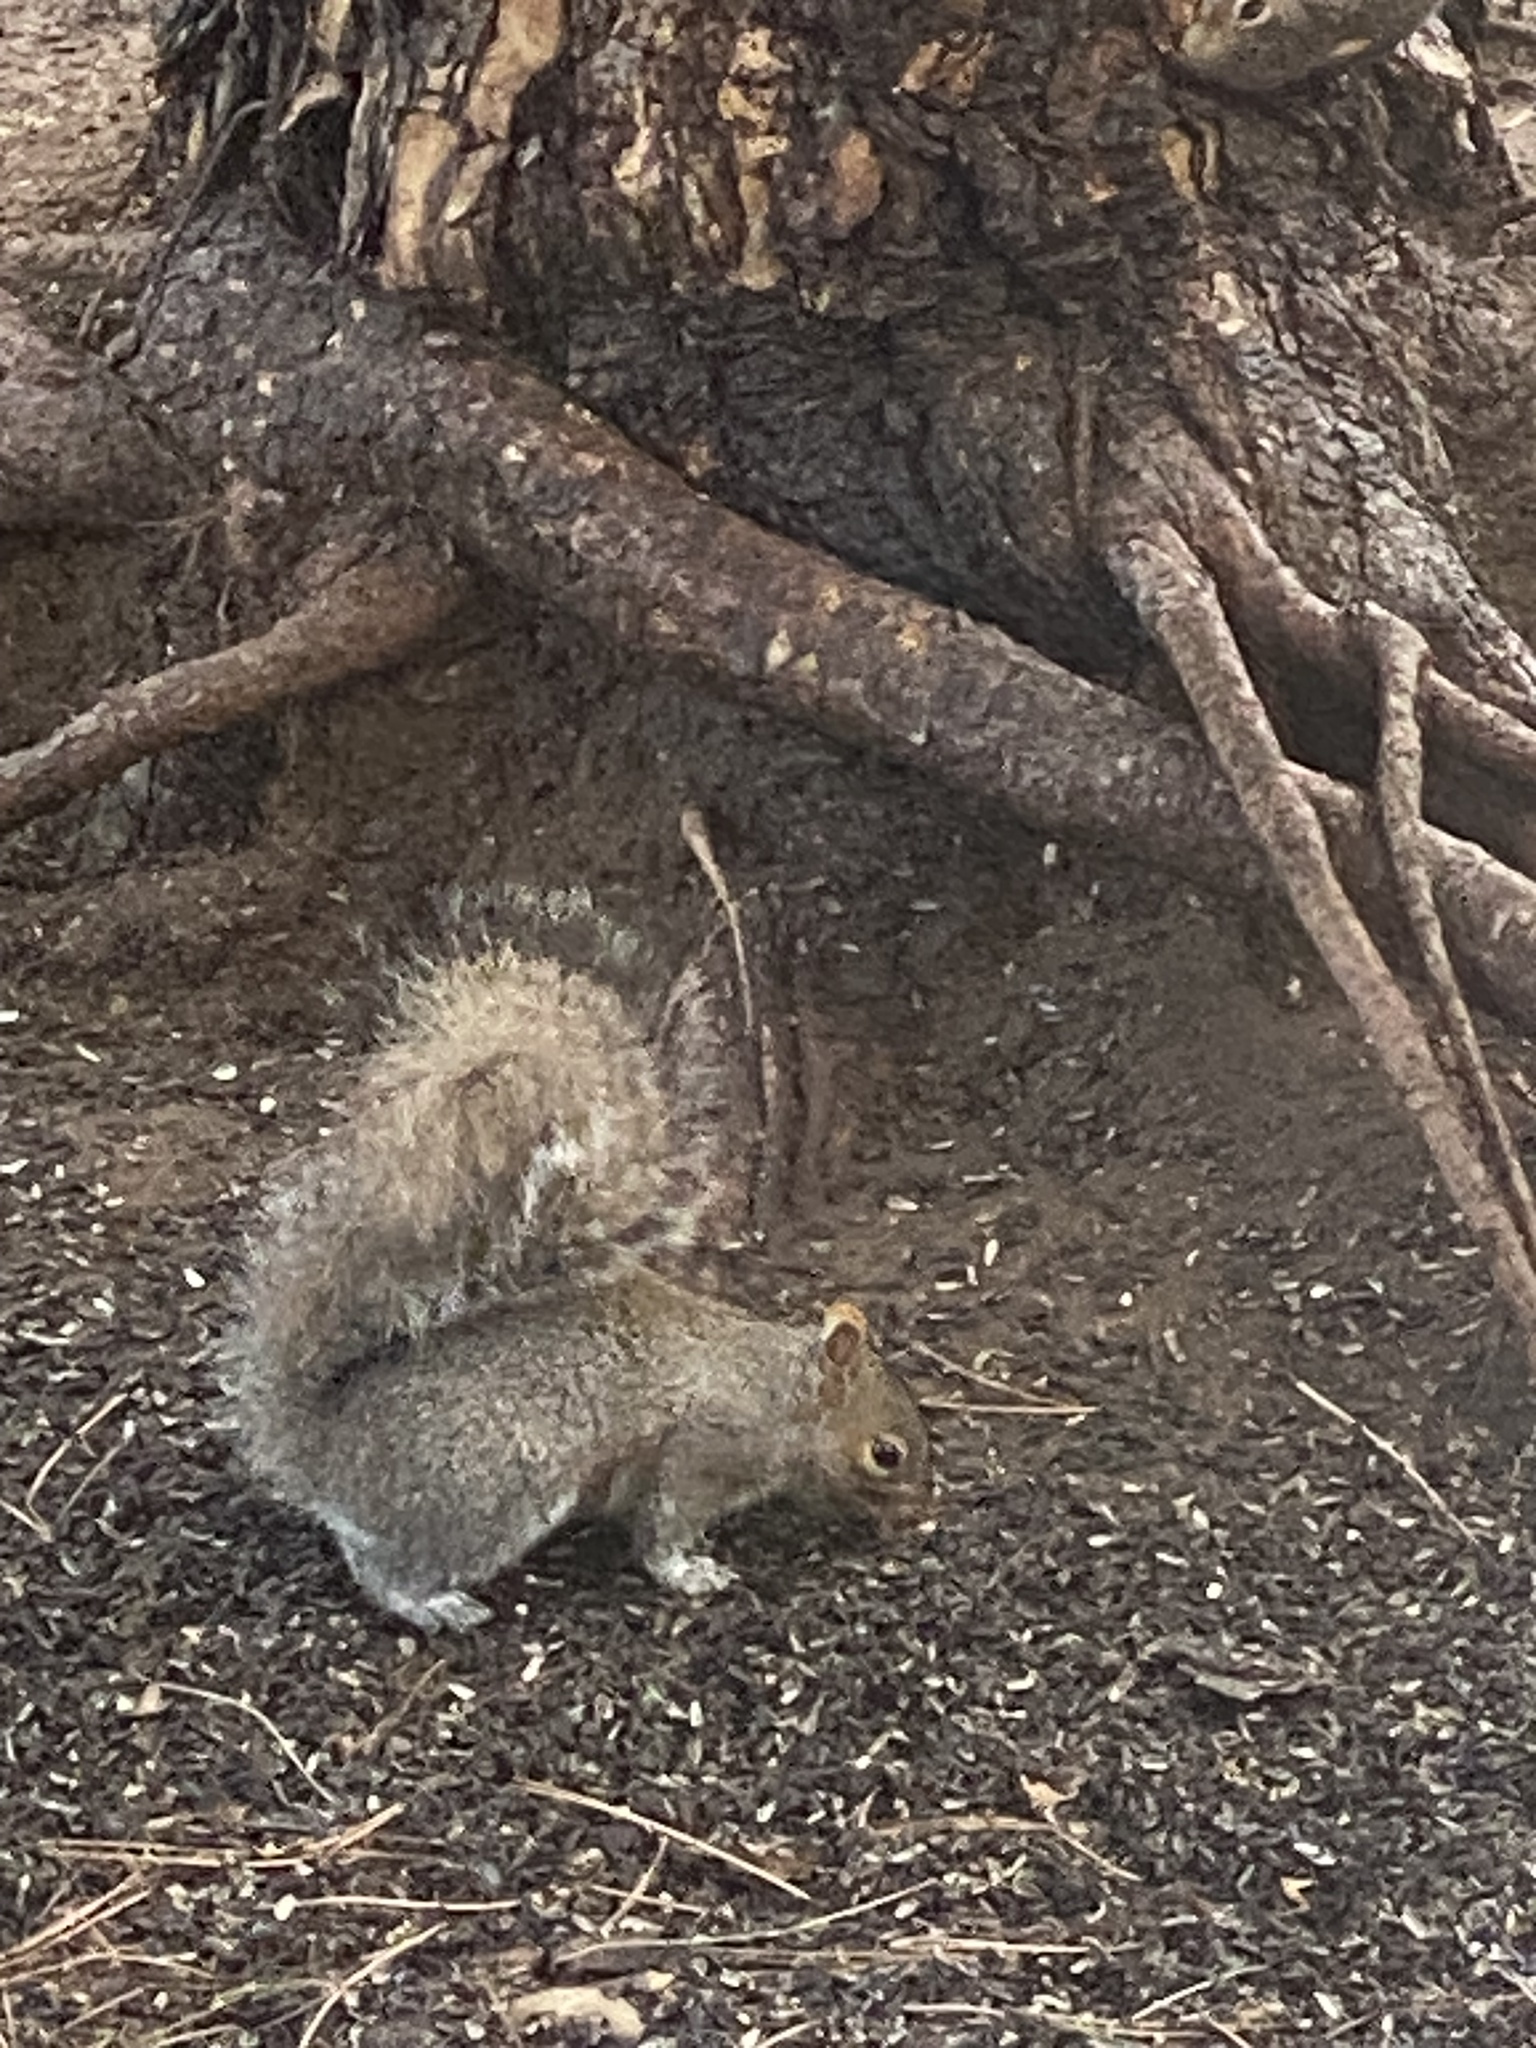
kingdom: Animalia
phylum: Chordata
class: Mammalia
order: Rodentia
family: Sciuridae
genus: Sciurus
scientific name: Sciurus carolinensis
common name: Eastern gray squirrel
